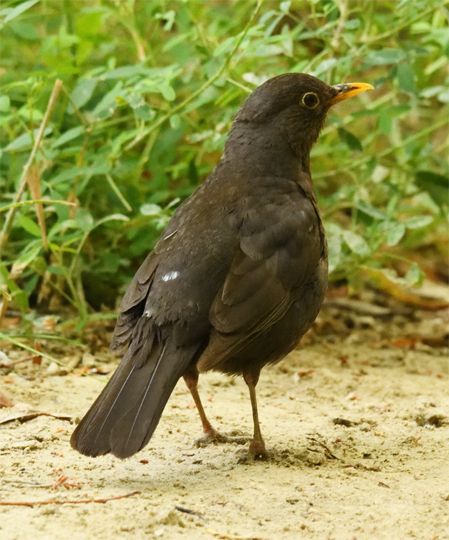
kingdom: Animalia
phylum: Chordata
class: Aves
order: Passeriformes
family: Turdidae
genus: Turdus
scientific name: Turdus merula
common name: Common blackbird
